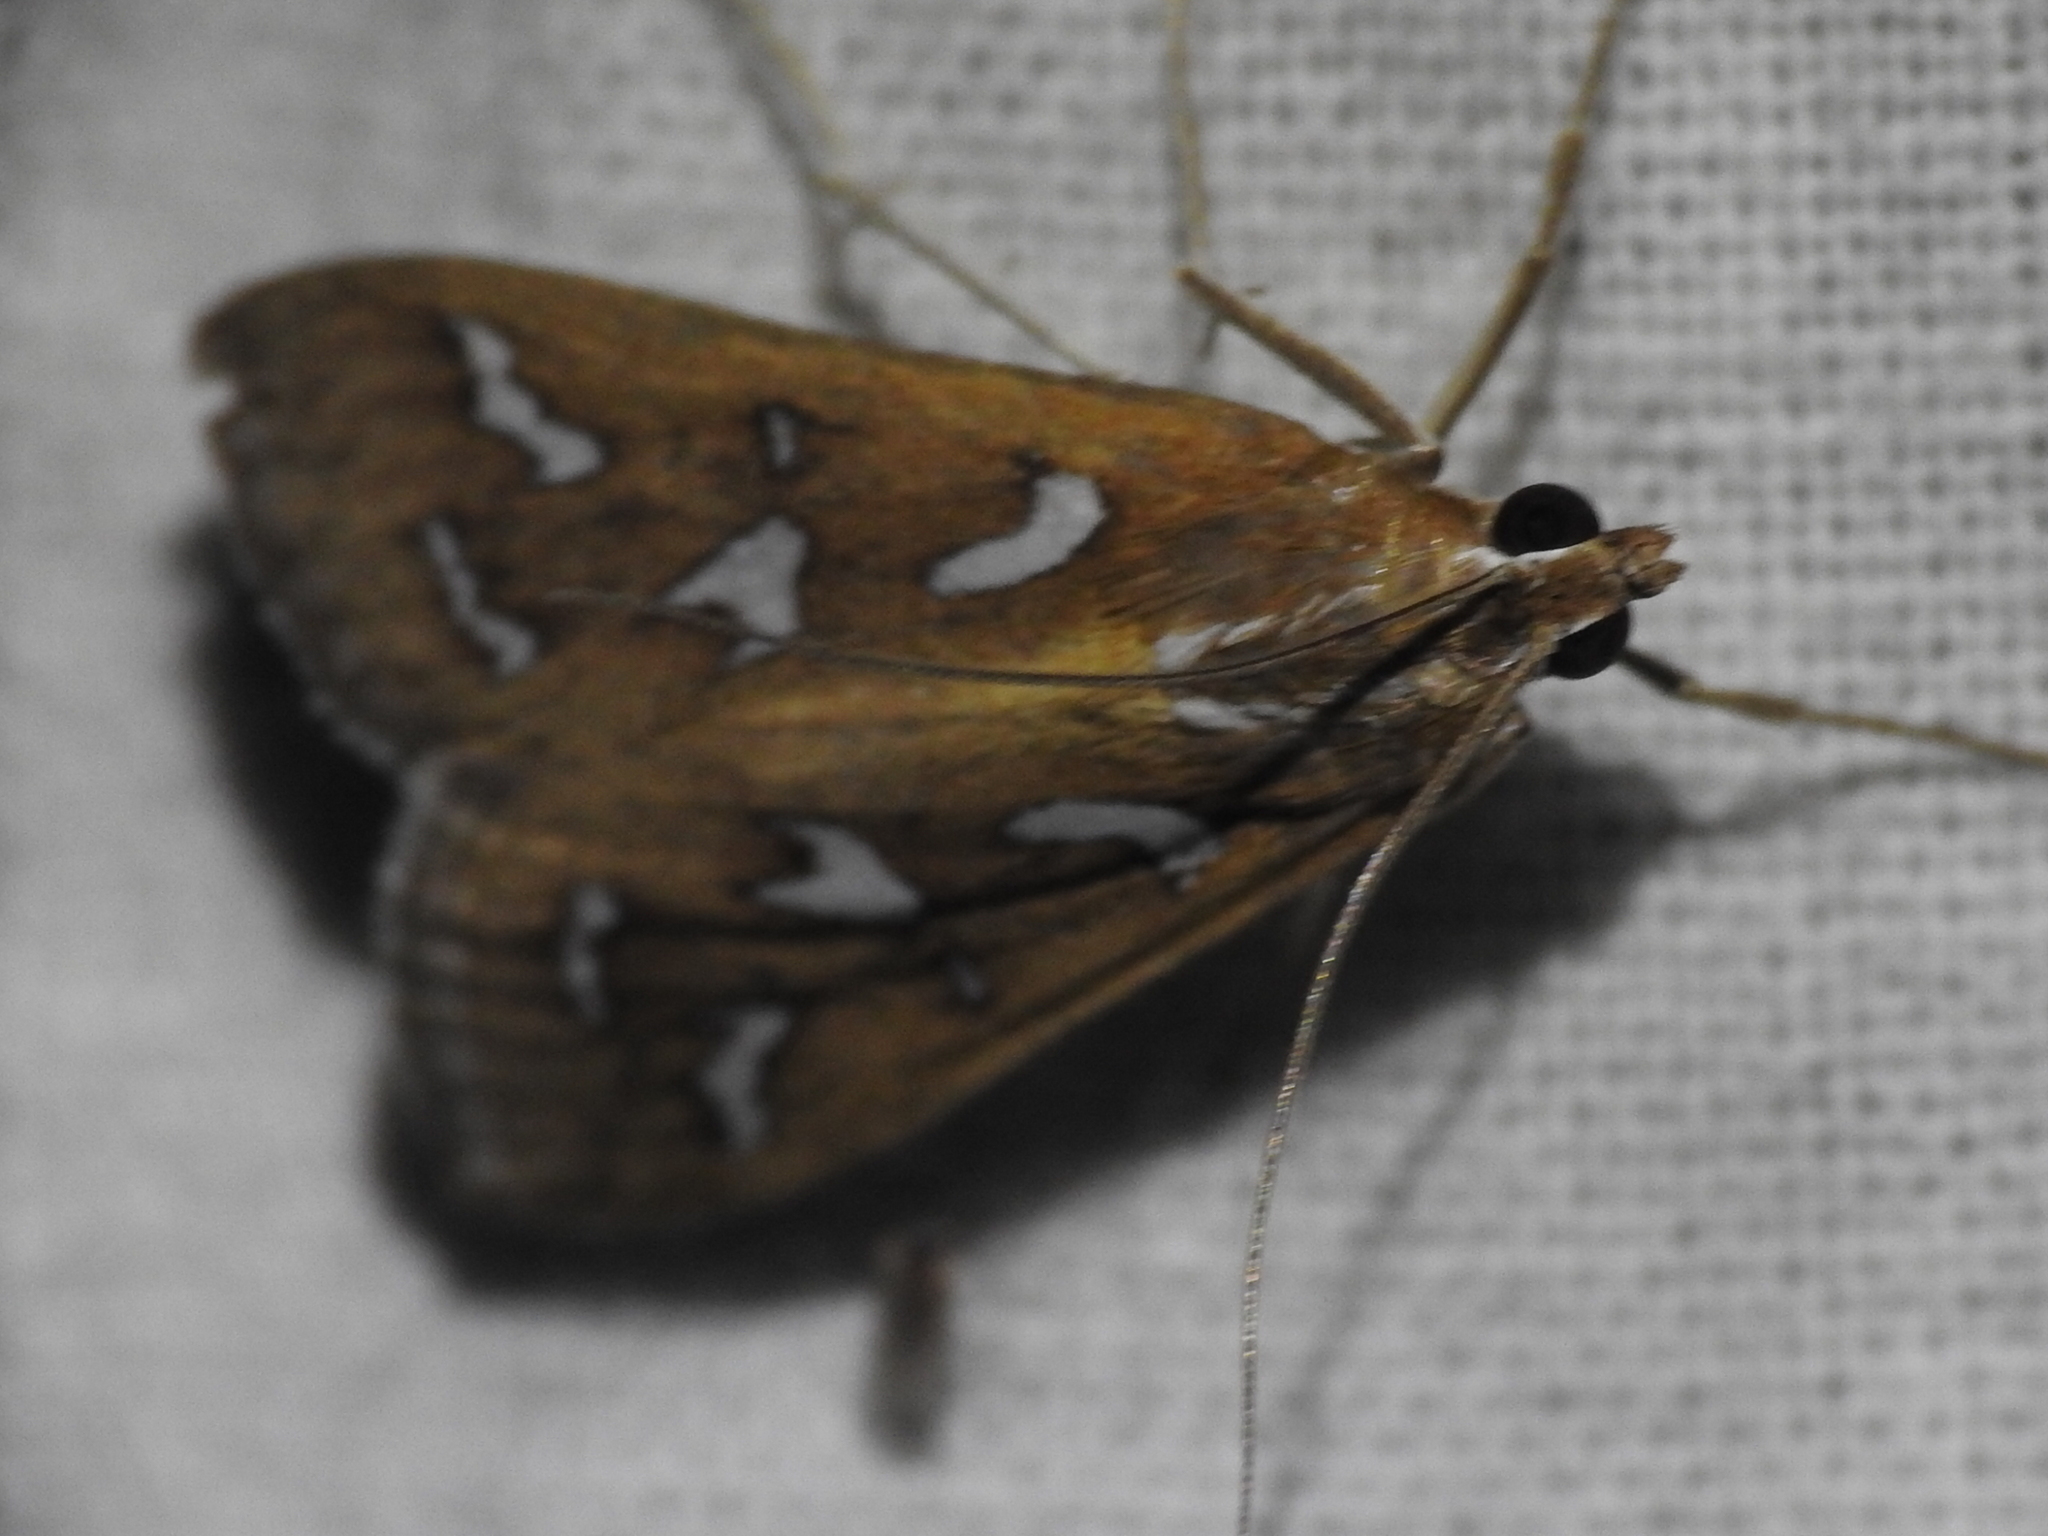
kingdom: Animalia
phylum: Arthropoda
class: Insecta
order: Lepidoptera
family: Crambidae
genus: Diastictis
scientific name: Diastictis fracturalis
